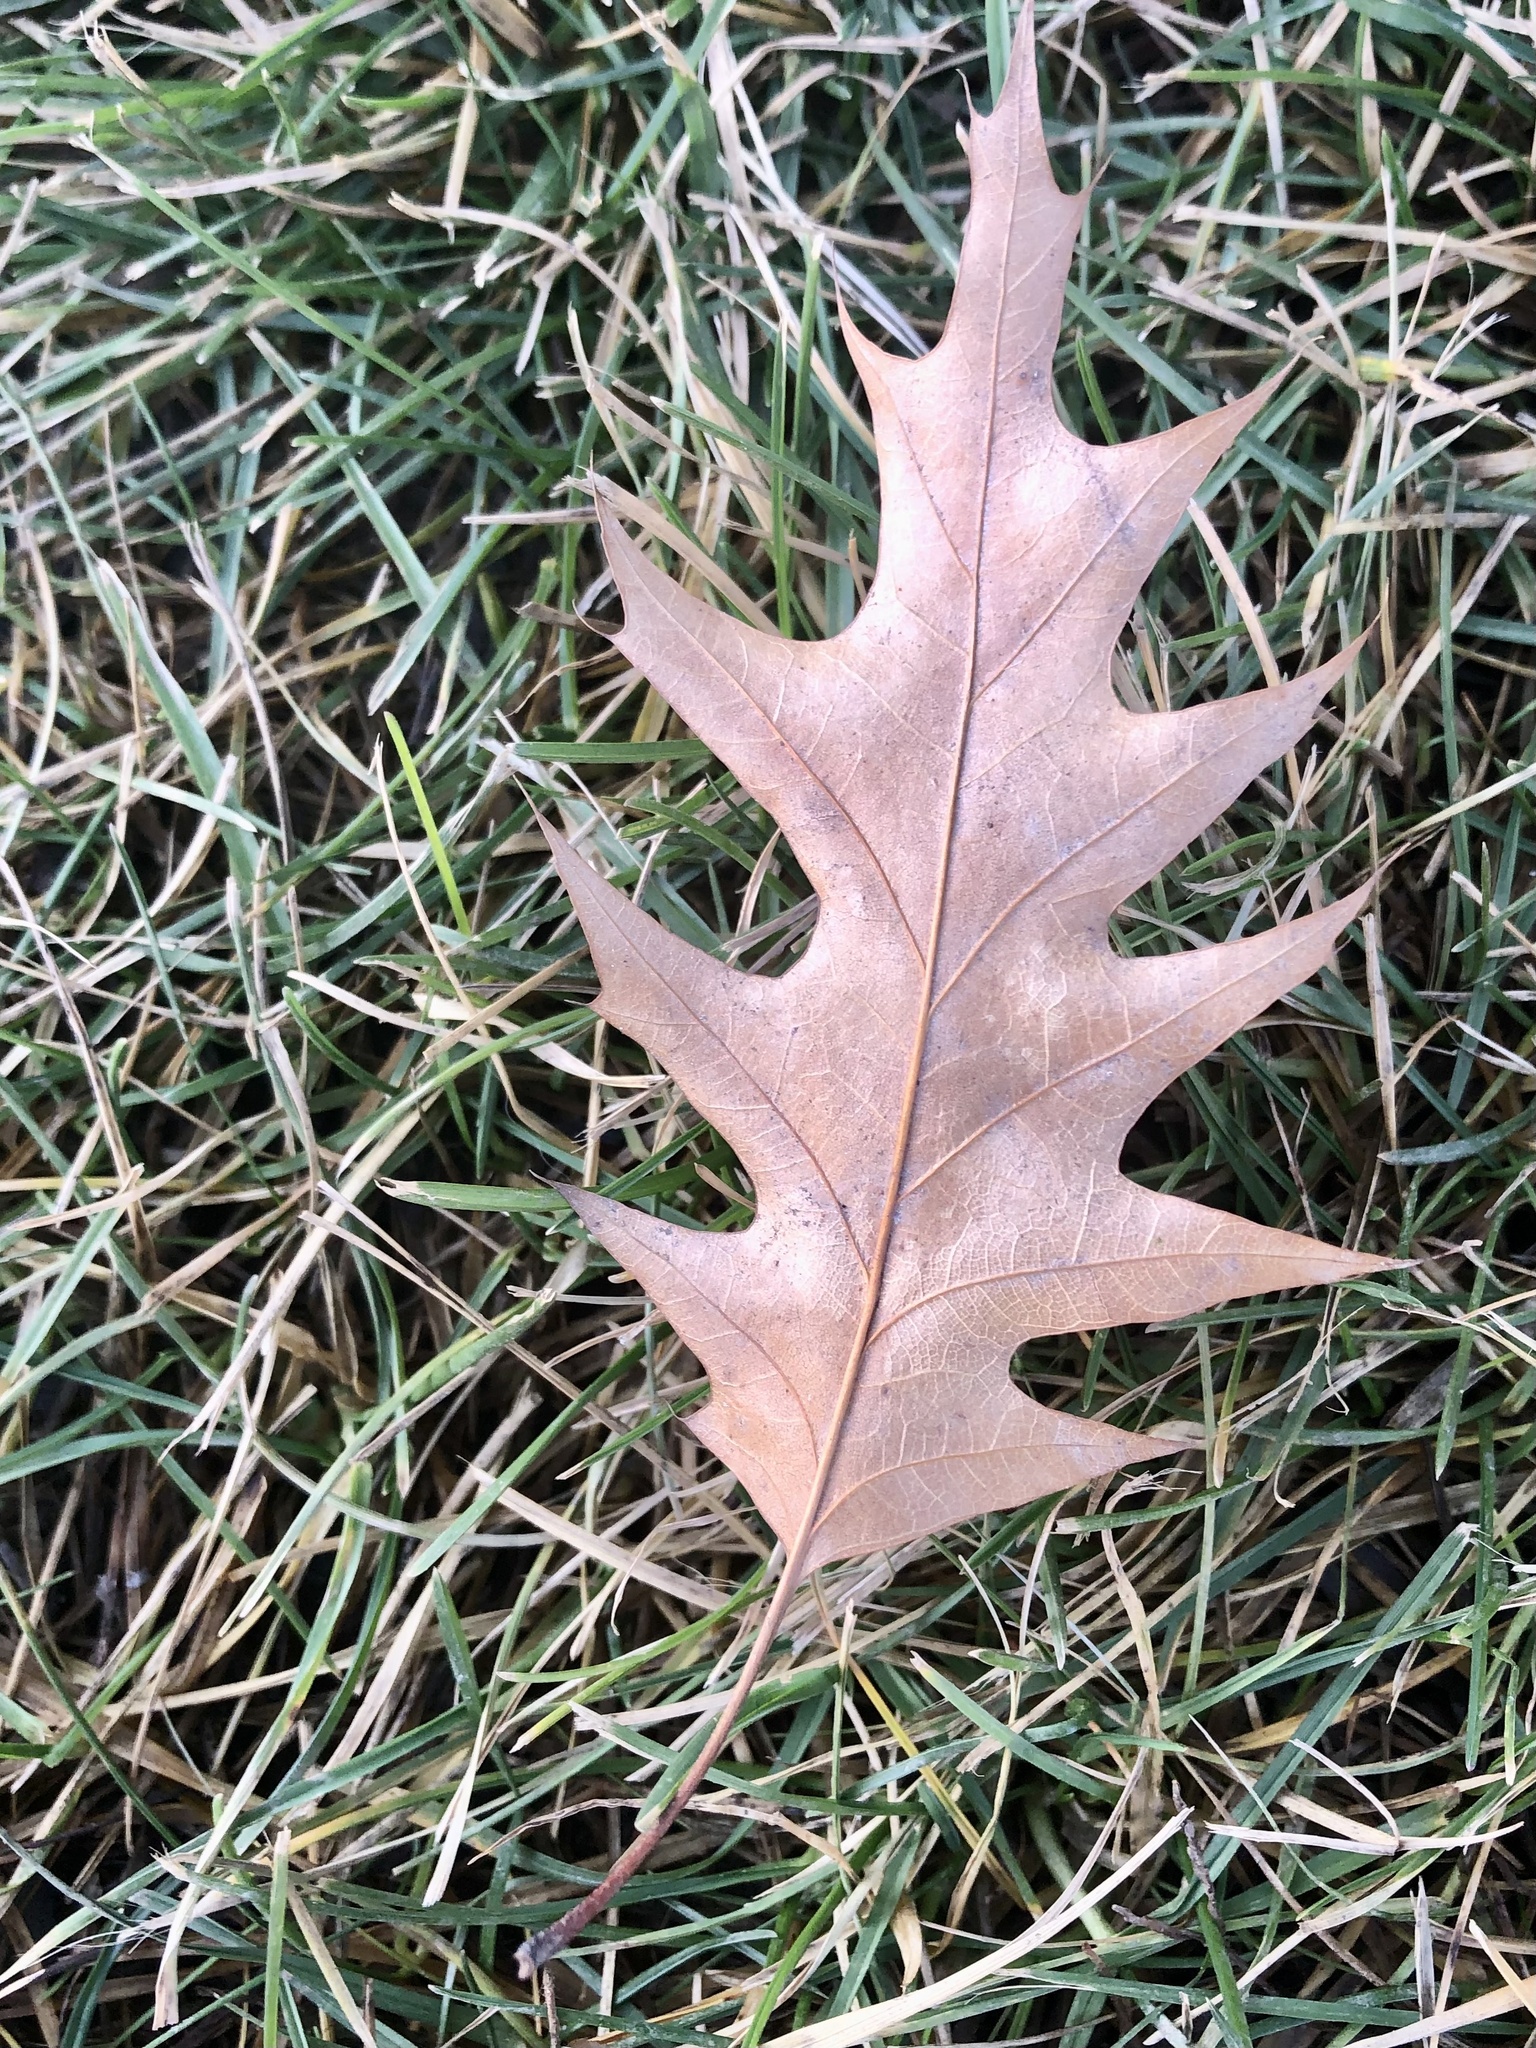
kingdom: Plantae
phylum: Tracheophyta
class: Magnoliopsida
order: Fagales
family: Fagaceae
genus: Quercus
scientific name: Quercus rubra
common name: Red oak
